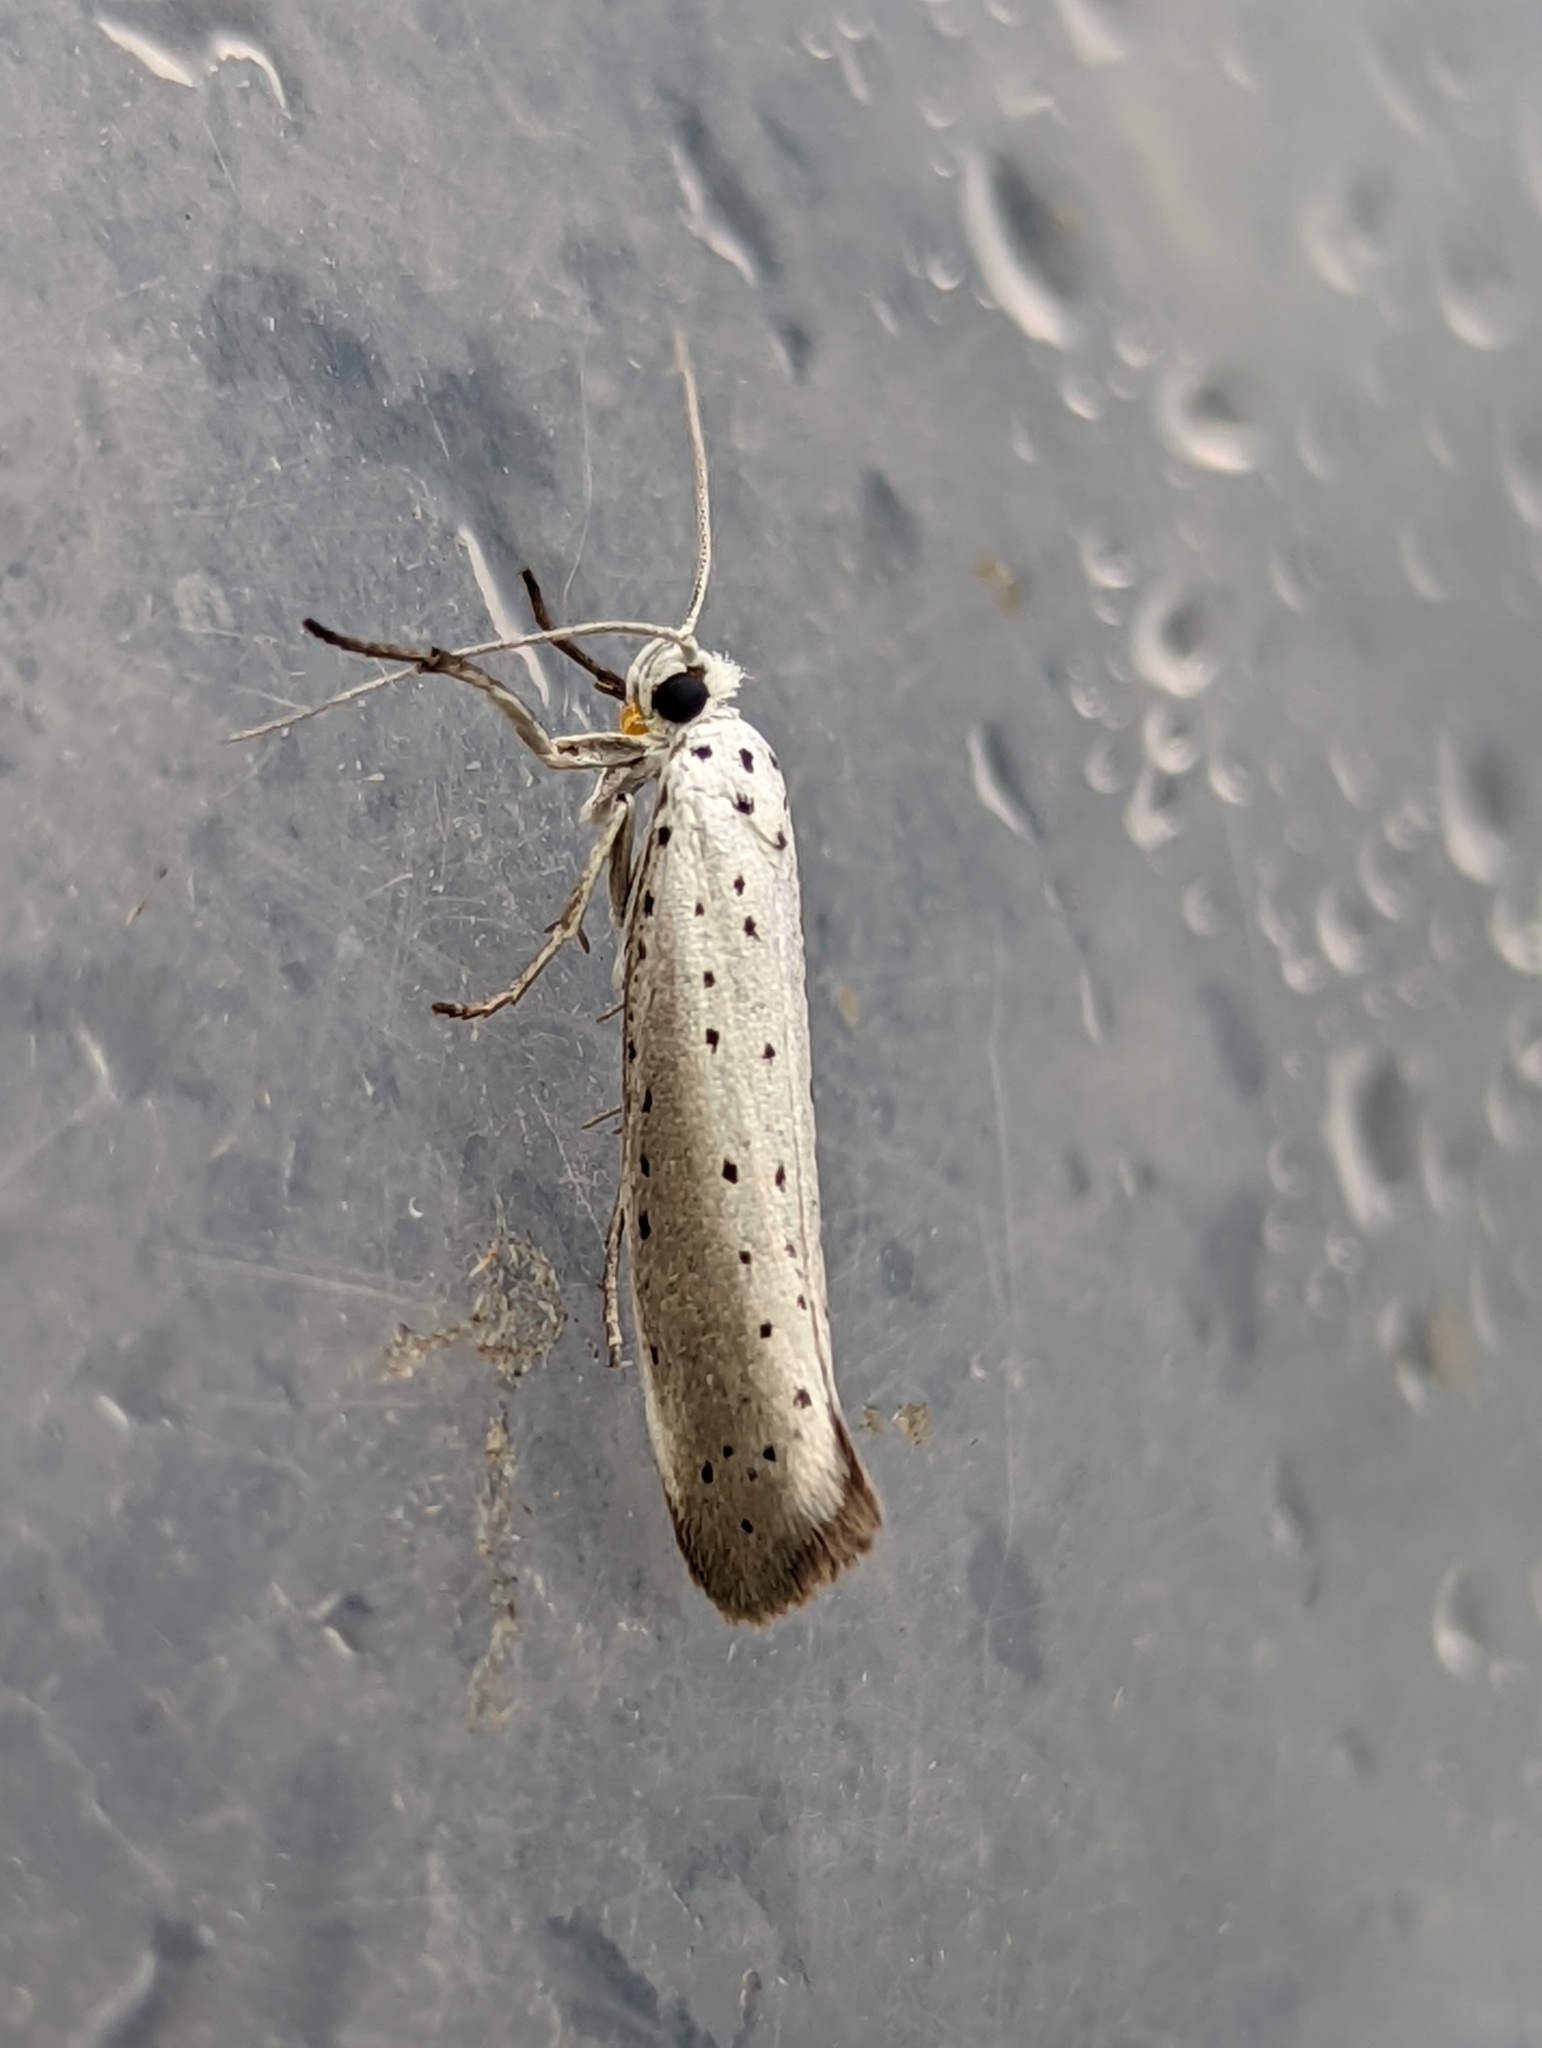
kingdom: Animalia
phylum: Arthropoda
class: Insecta
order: Lepidoptera
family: Yponomeutidae
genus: Yponomeuta
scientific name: Yponomeuta padella
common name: Orchard ermine
